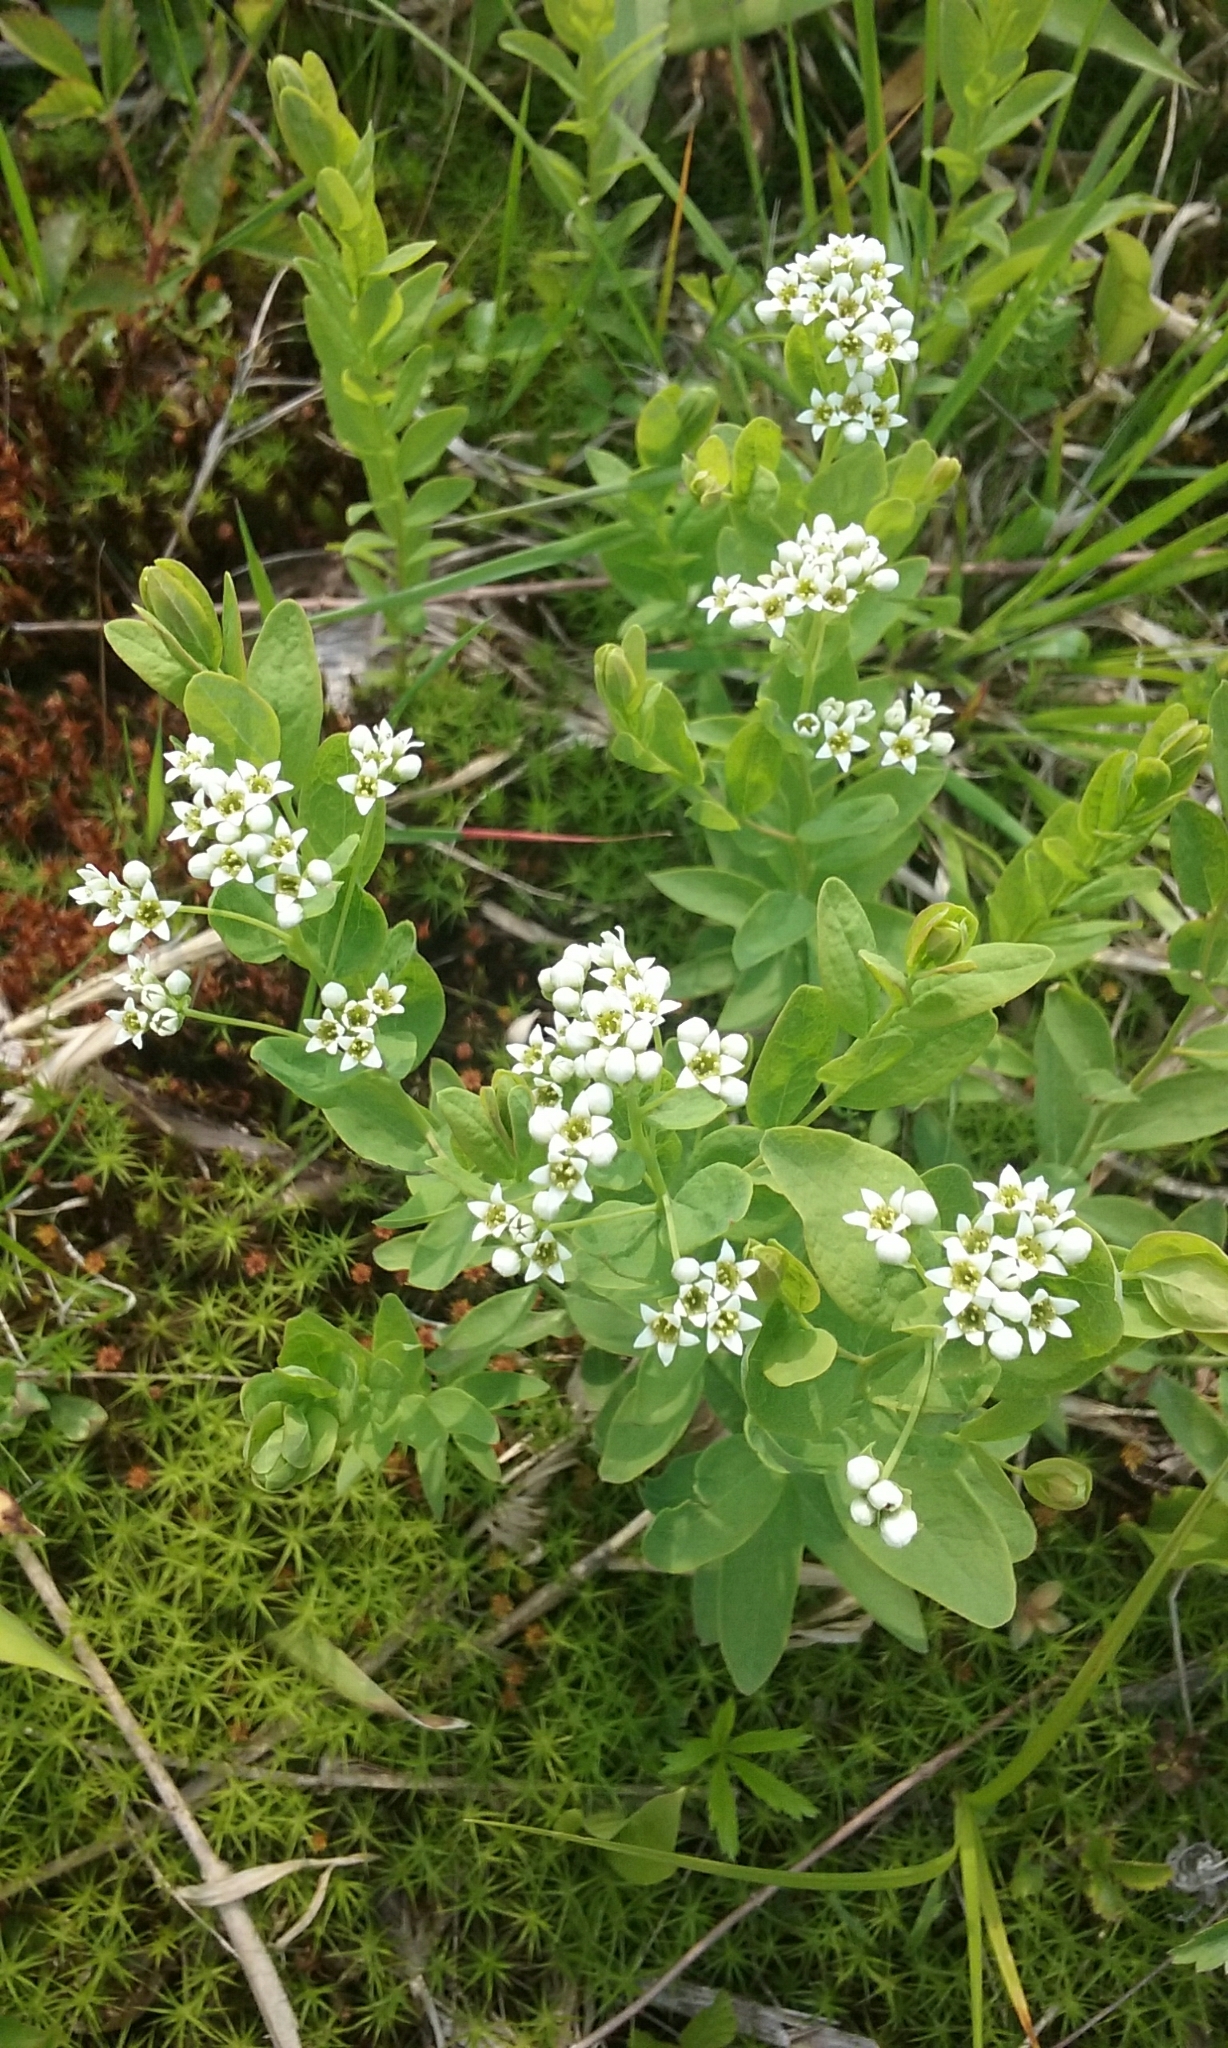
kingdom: Plantae
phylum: Tracheophyta
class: Magnoliopsida
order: Santalales
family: Comandraceae
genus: Comandra
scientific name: Comandra umbellata
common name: Bastard toadflax
